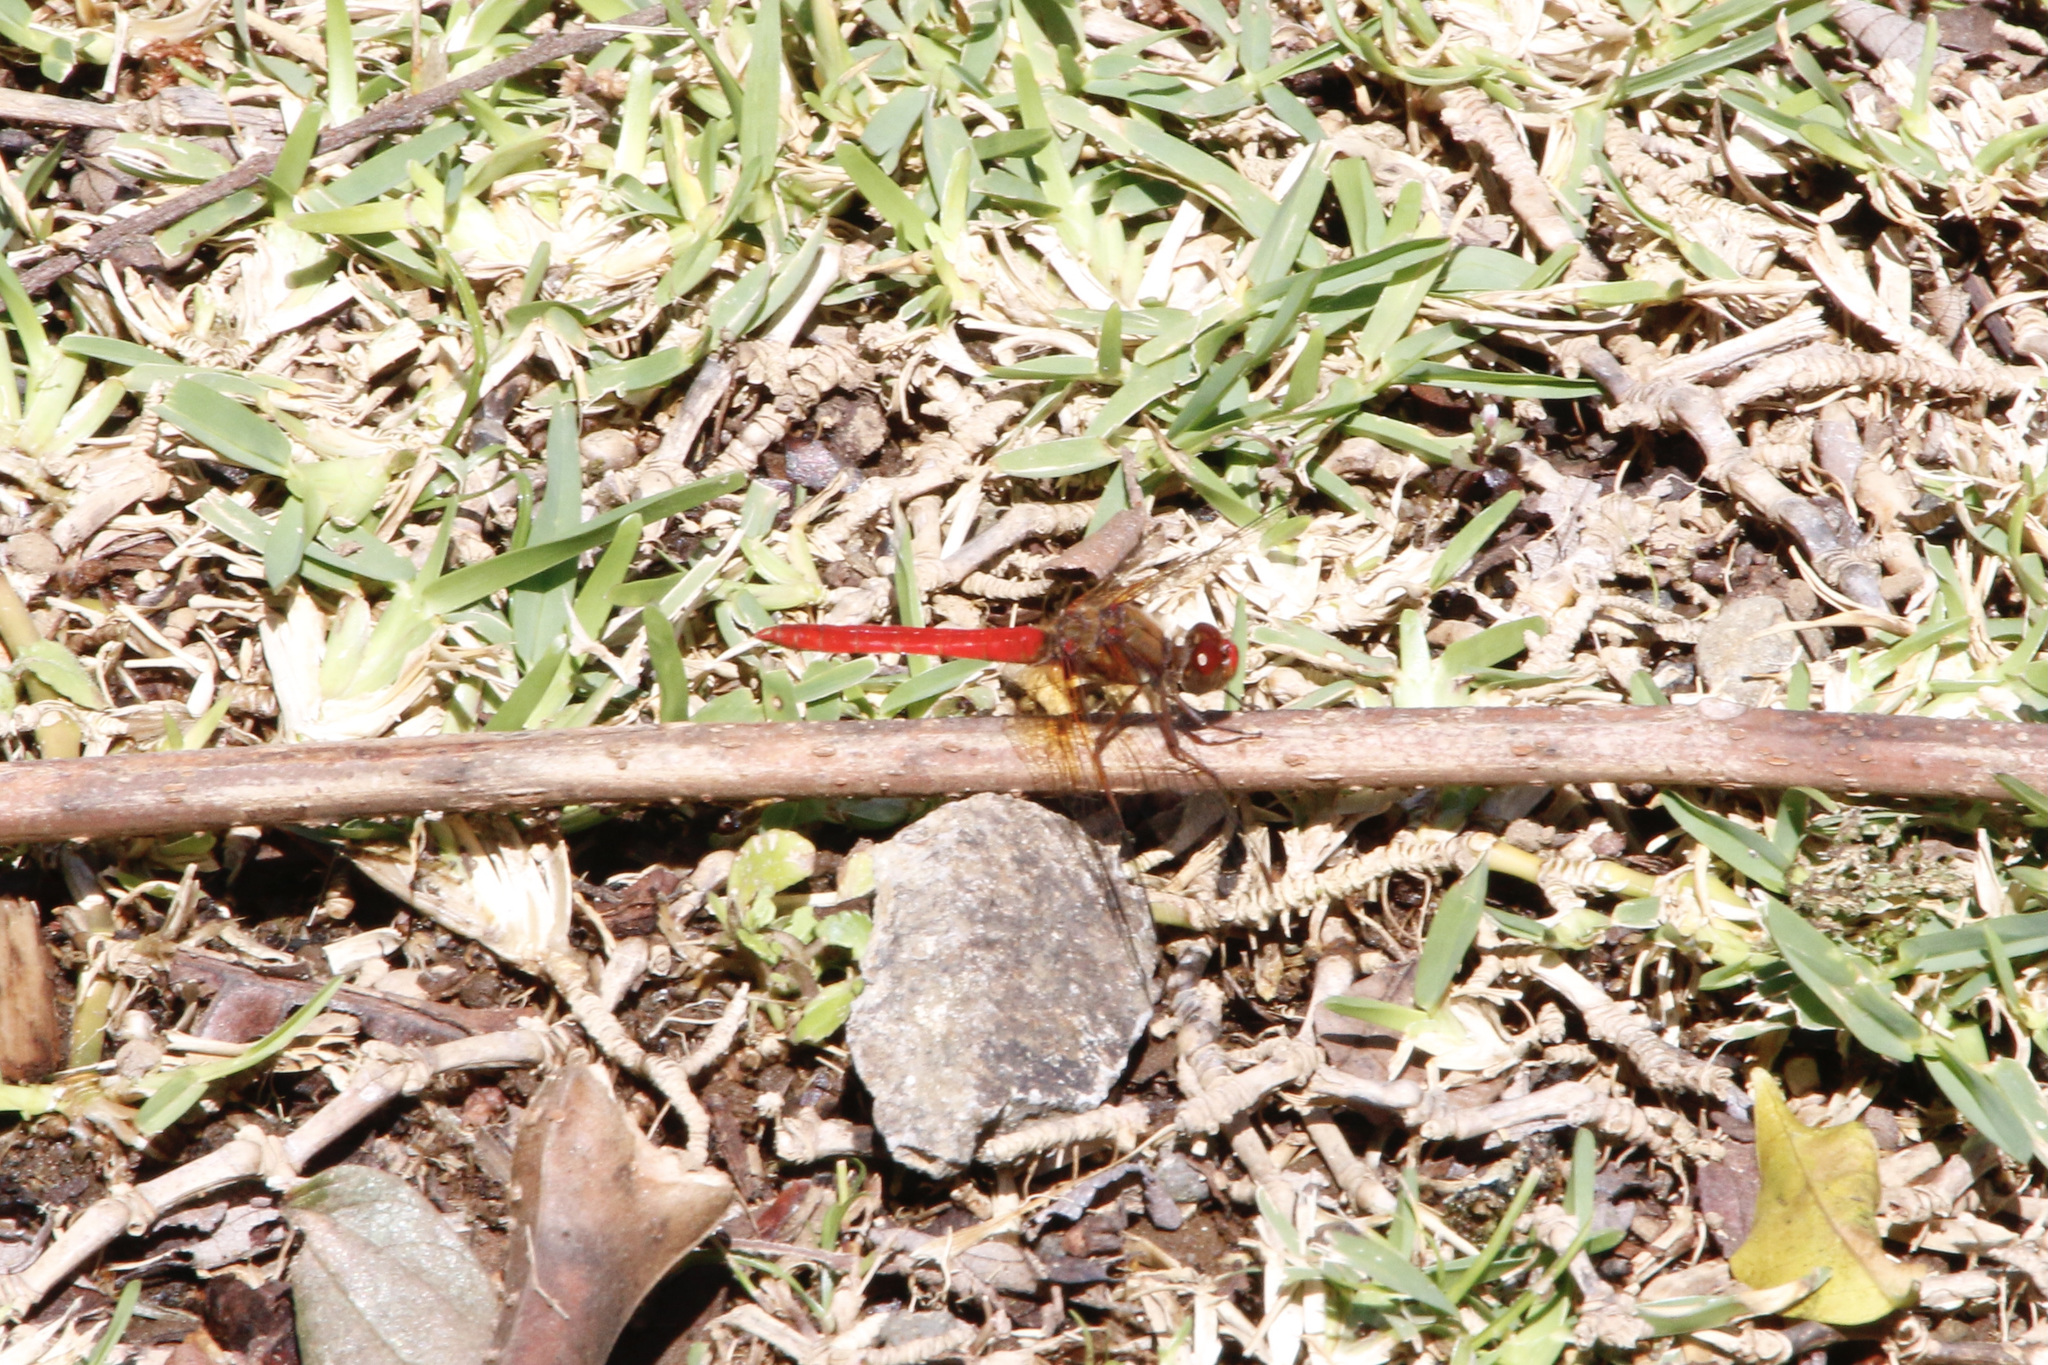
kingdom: Animalia
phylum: Arthropoda
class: Insecta
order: Odonata
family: Libellulidae
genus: Sympetrum
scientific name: Sympetrum illotum
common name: Cardinal meadowhawk
